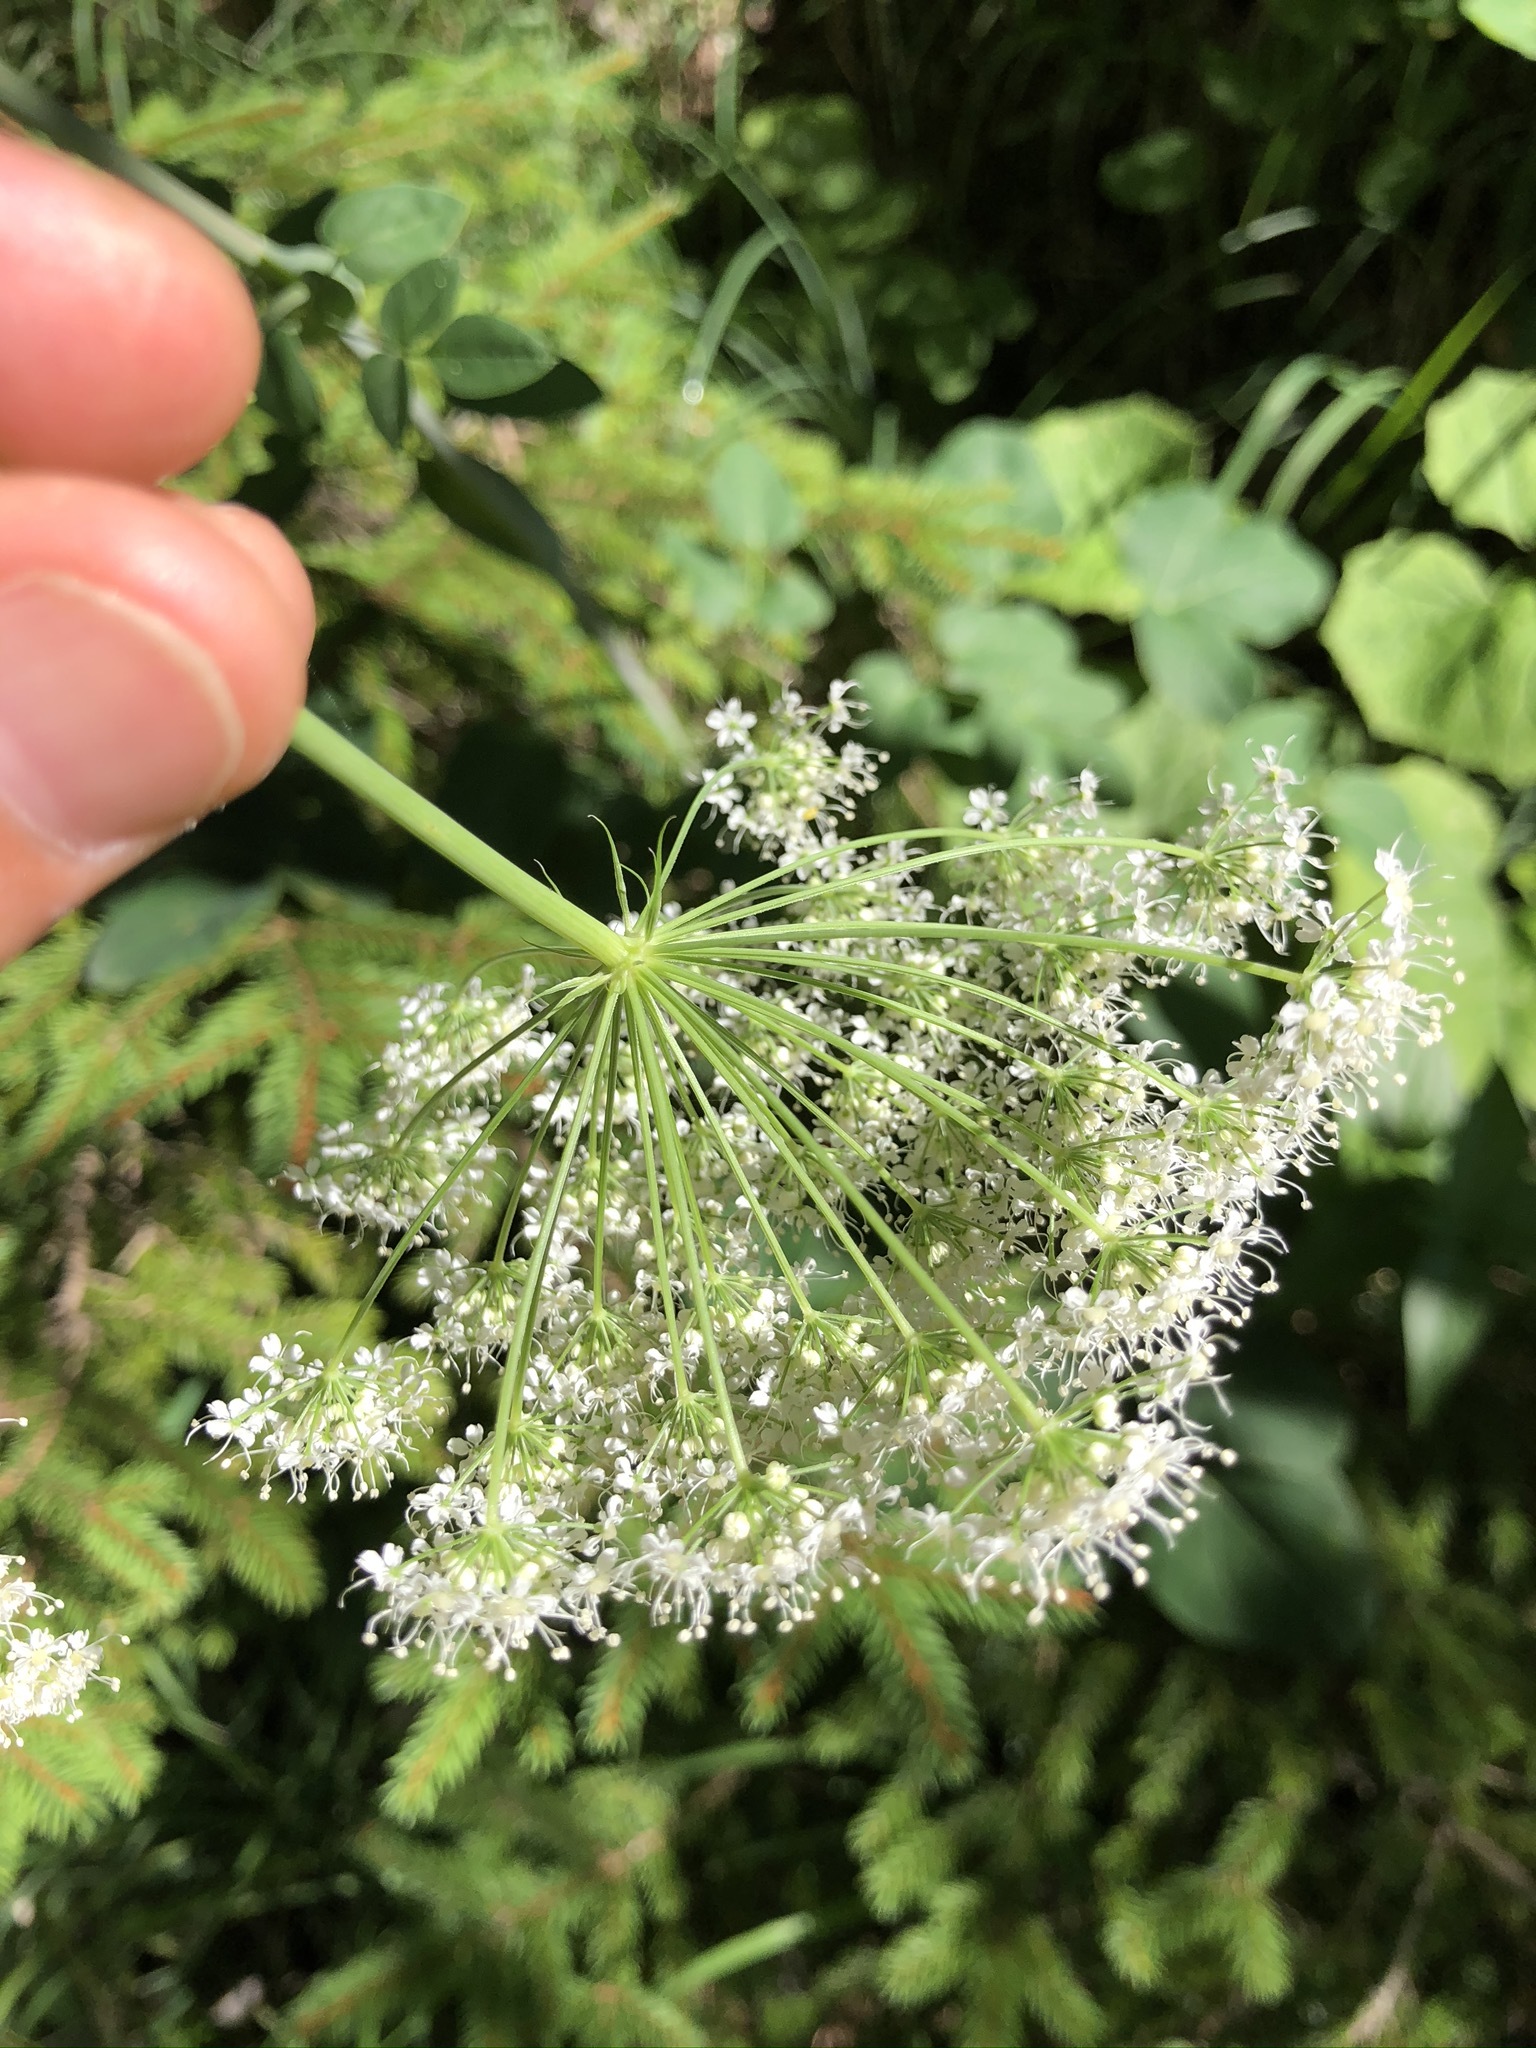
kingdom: Plantae
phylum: Tracheophyta
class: Magnoliopsida
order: Apiales
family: Apiaceae
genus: Laserpitium
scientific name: Laserpitium latifolium
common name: Broadleaf sermountain
